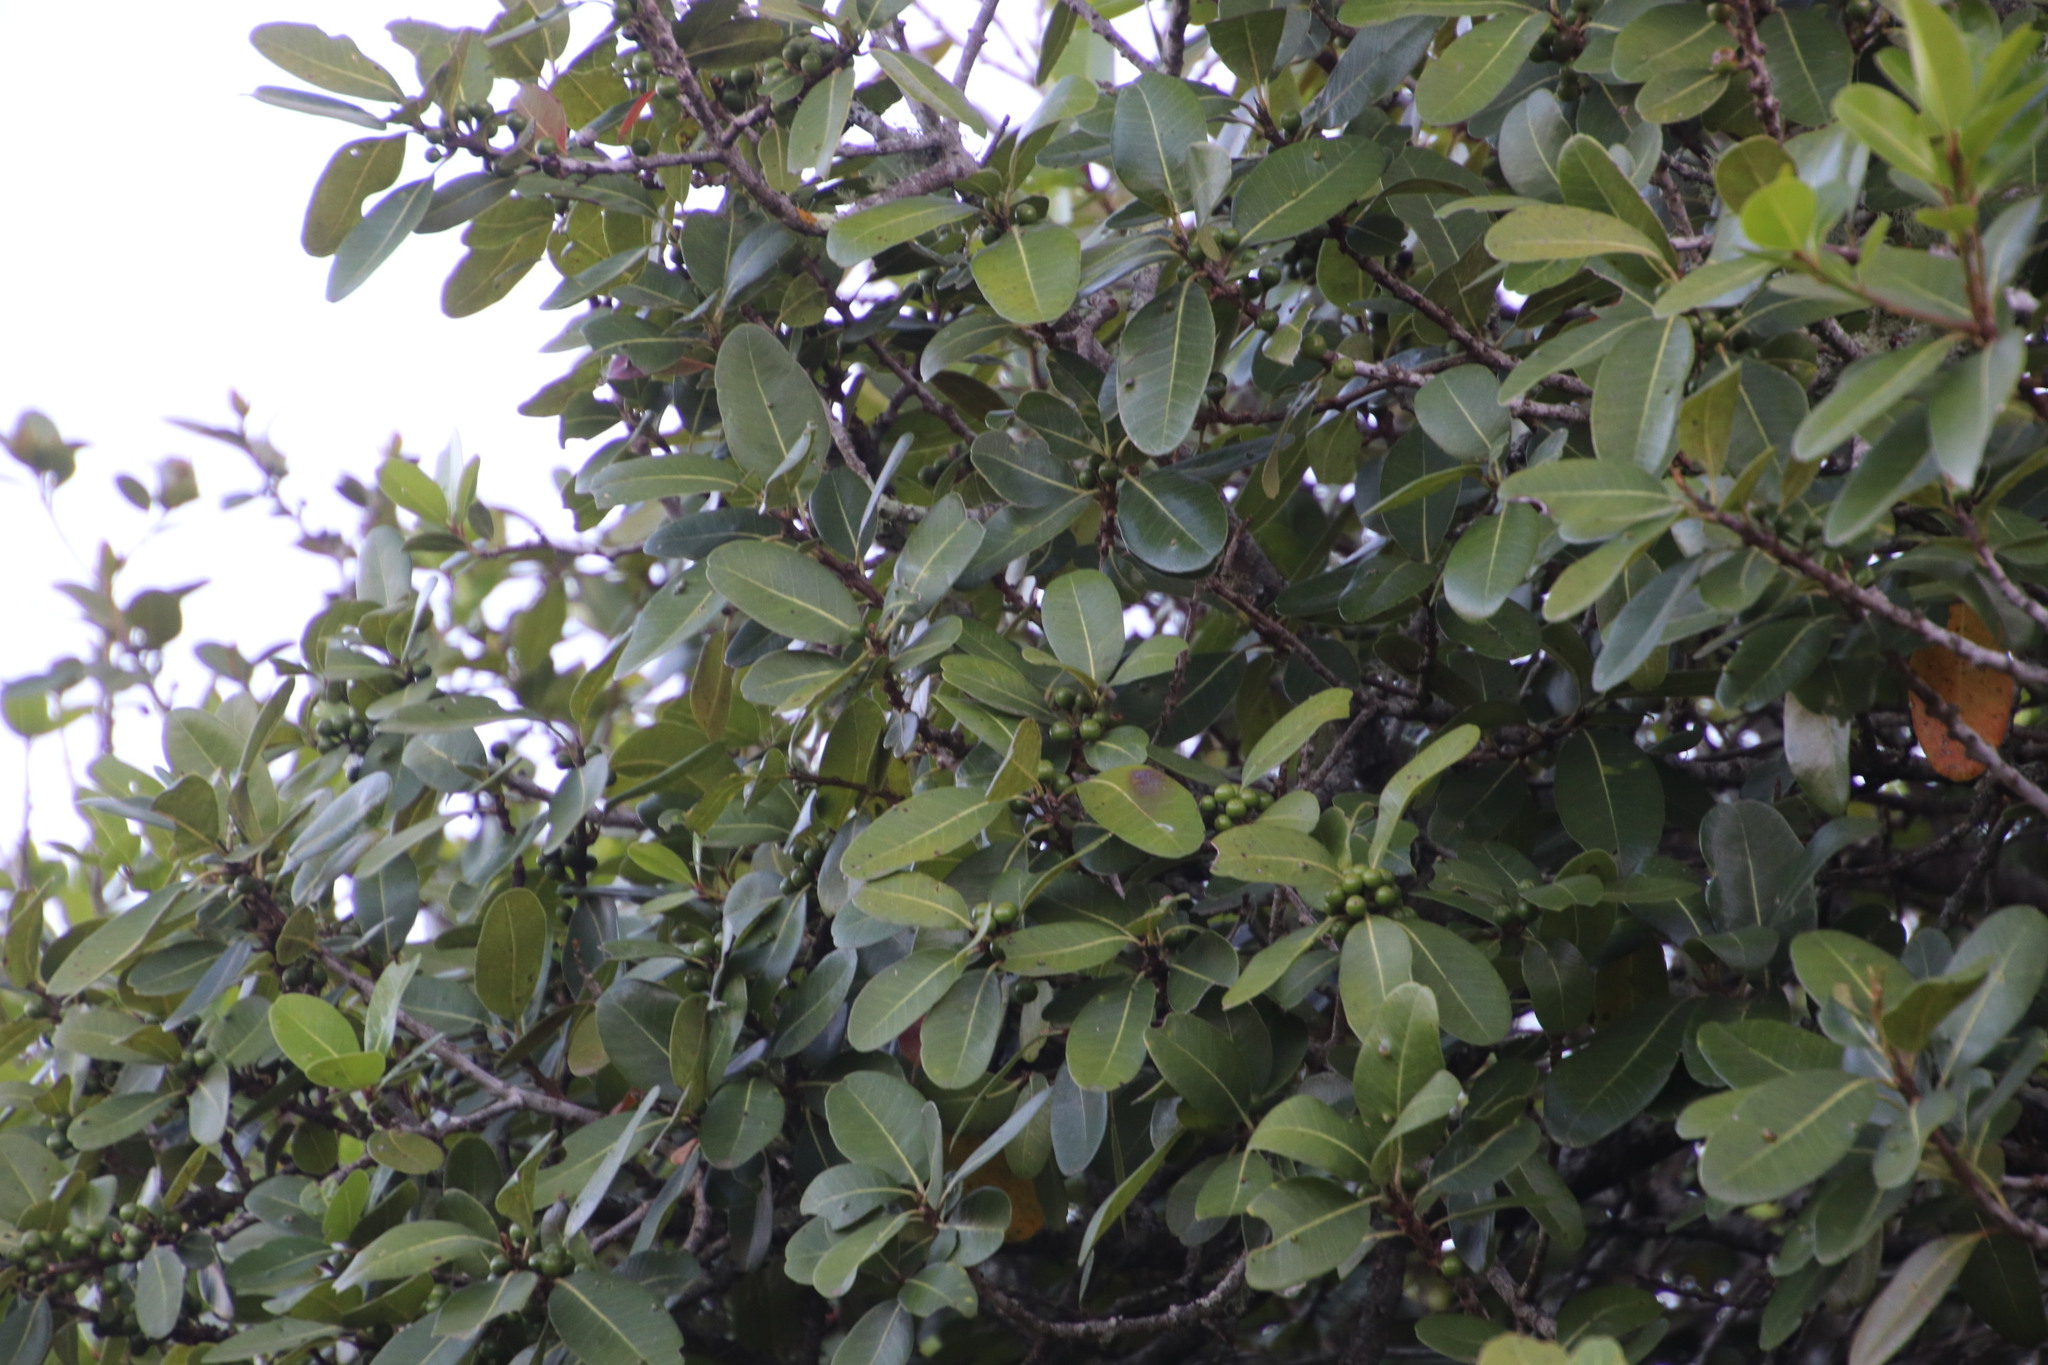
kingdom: Plantae
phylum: Tracheophyta
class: Magnoliopsida
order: Ericales
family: Sapotaceae
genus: Sideroxylon
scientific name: Sideroxylon inerme
